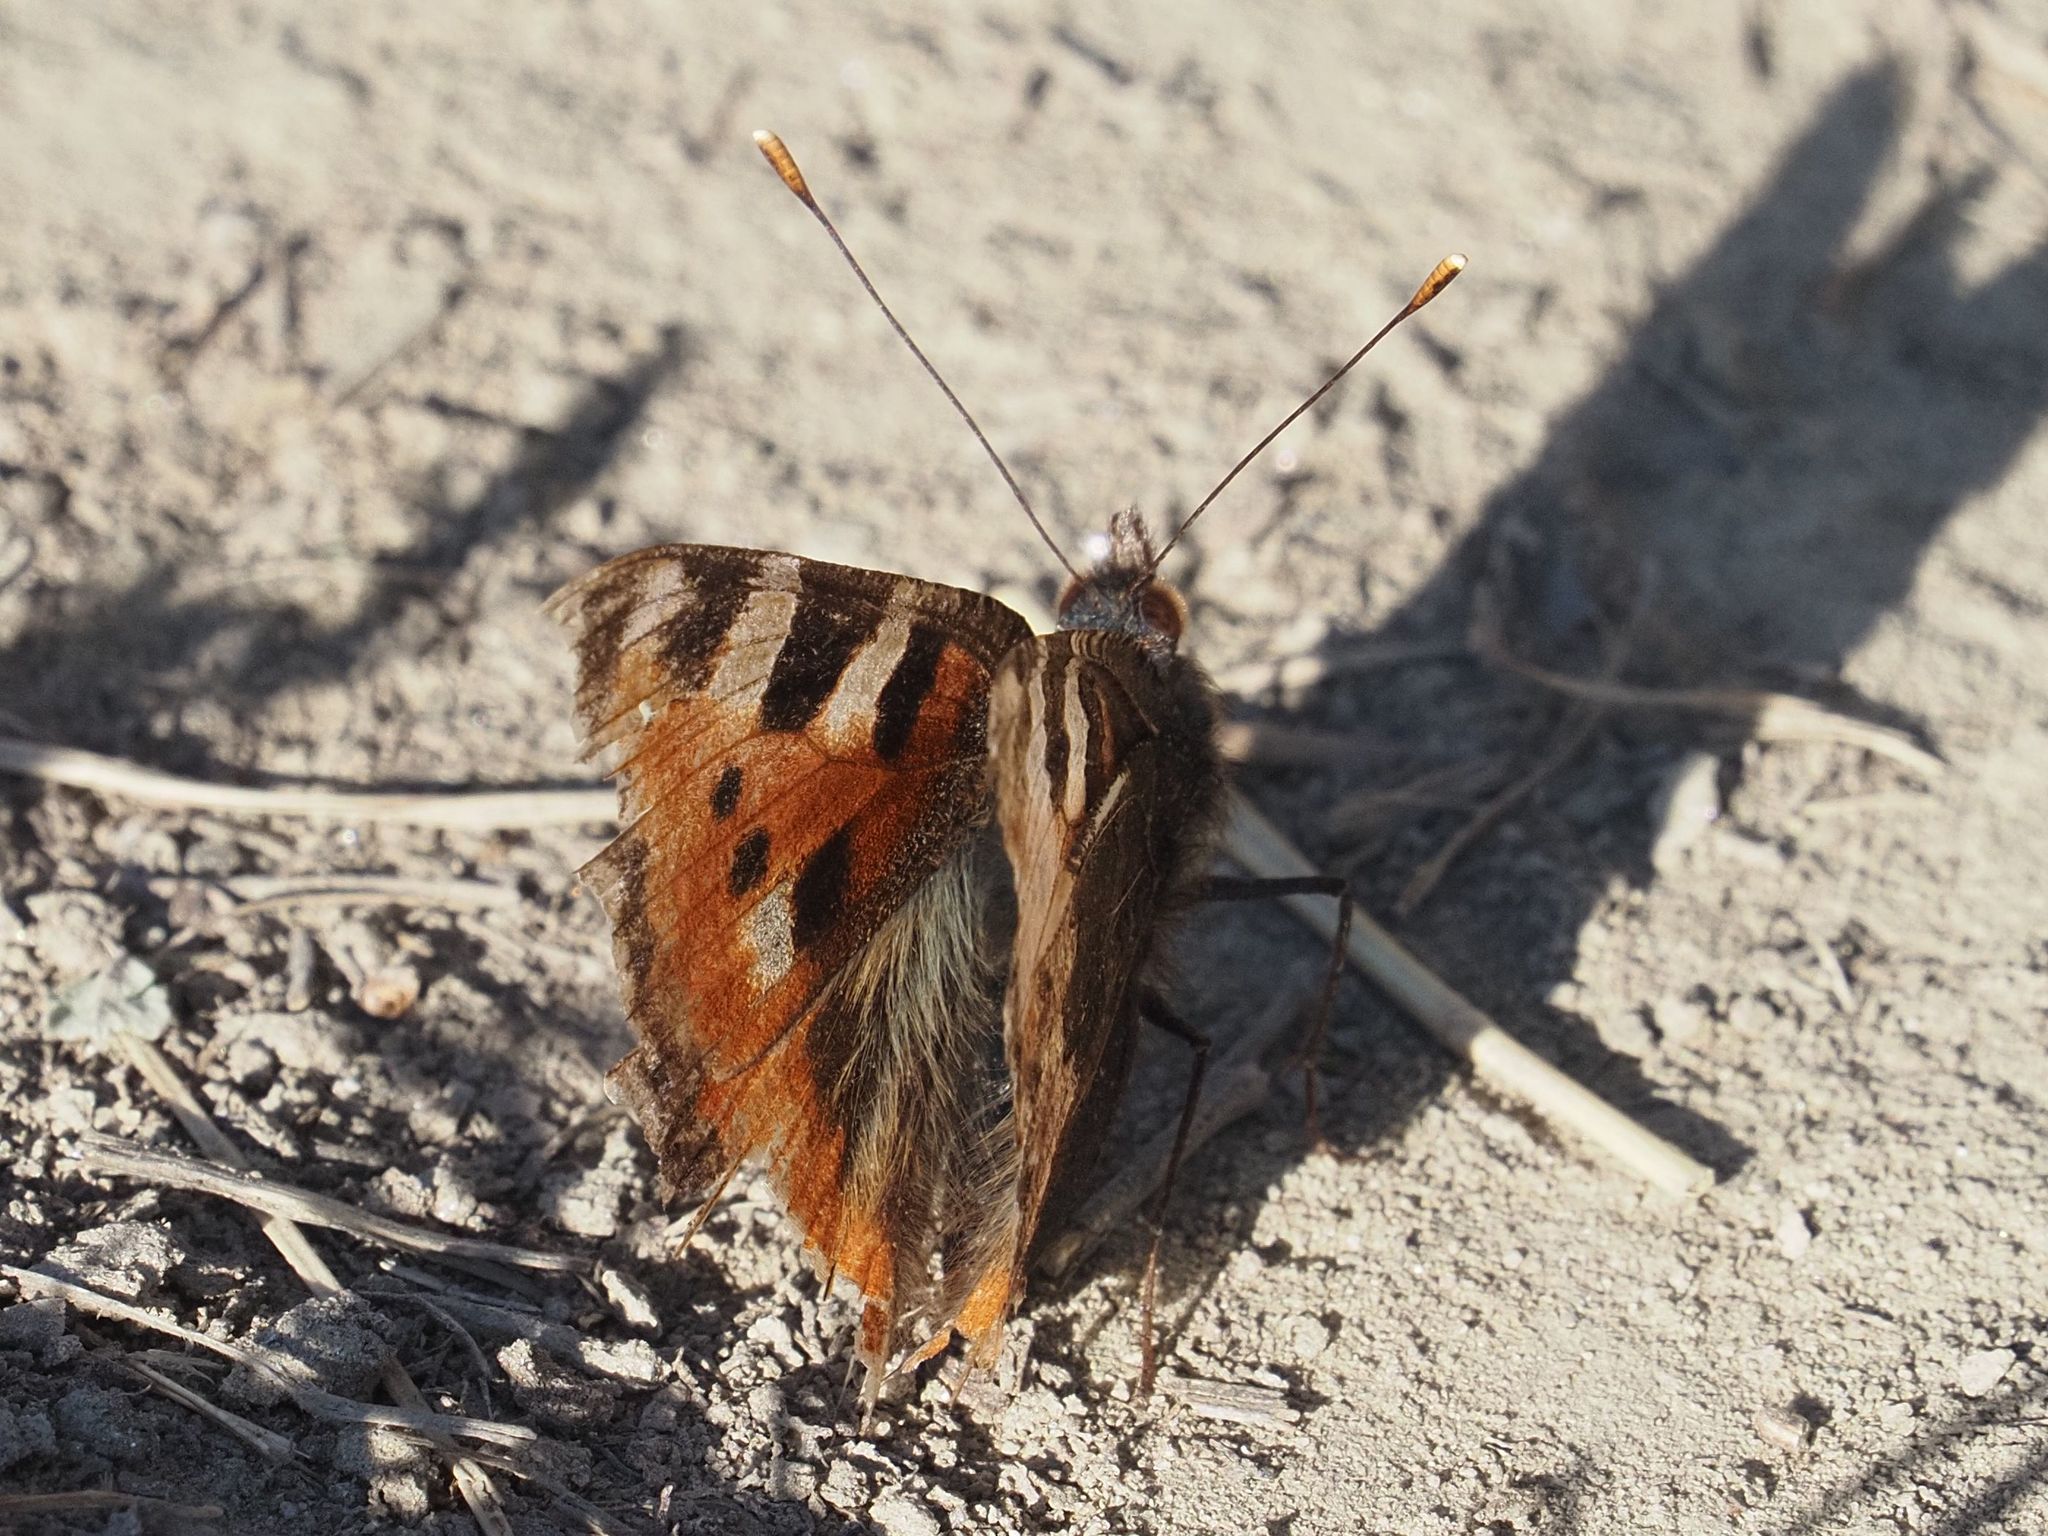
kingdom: Animalia
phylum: Arthropoda
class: Insecta
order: Lepidoptera
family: Nymphalidae
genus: Aglais
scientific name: Aglais urticae
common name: Small tortoiseshell
